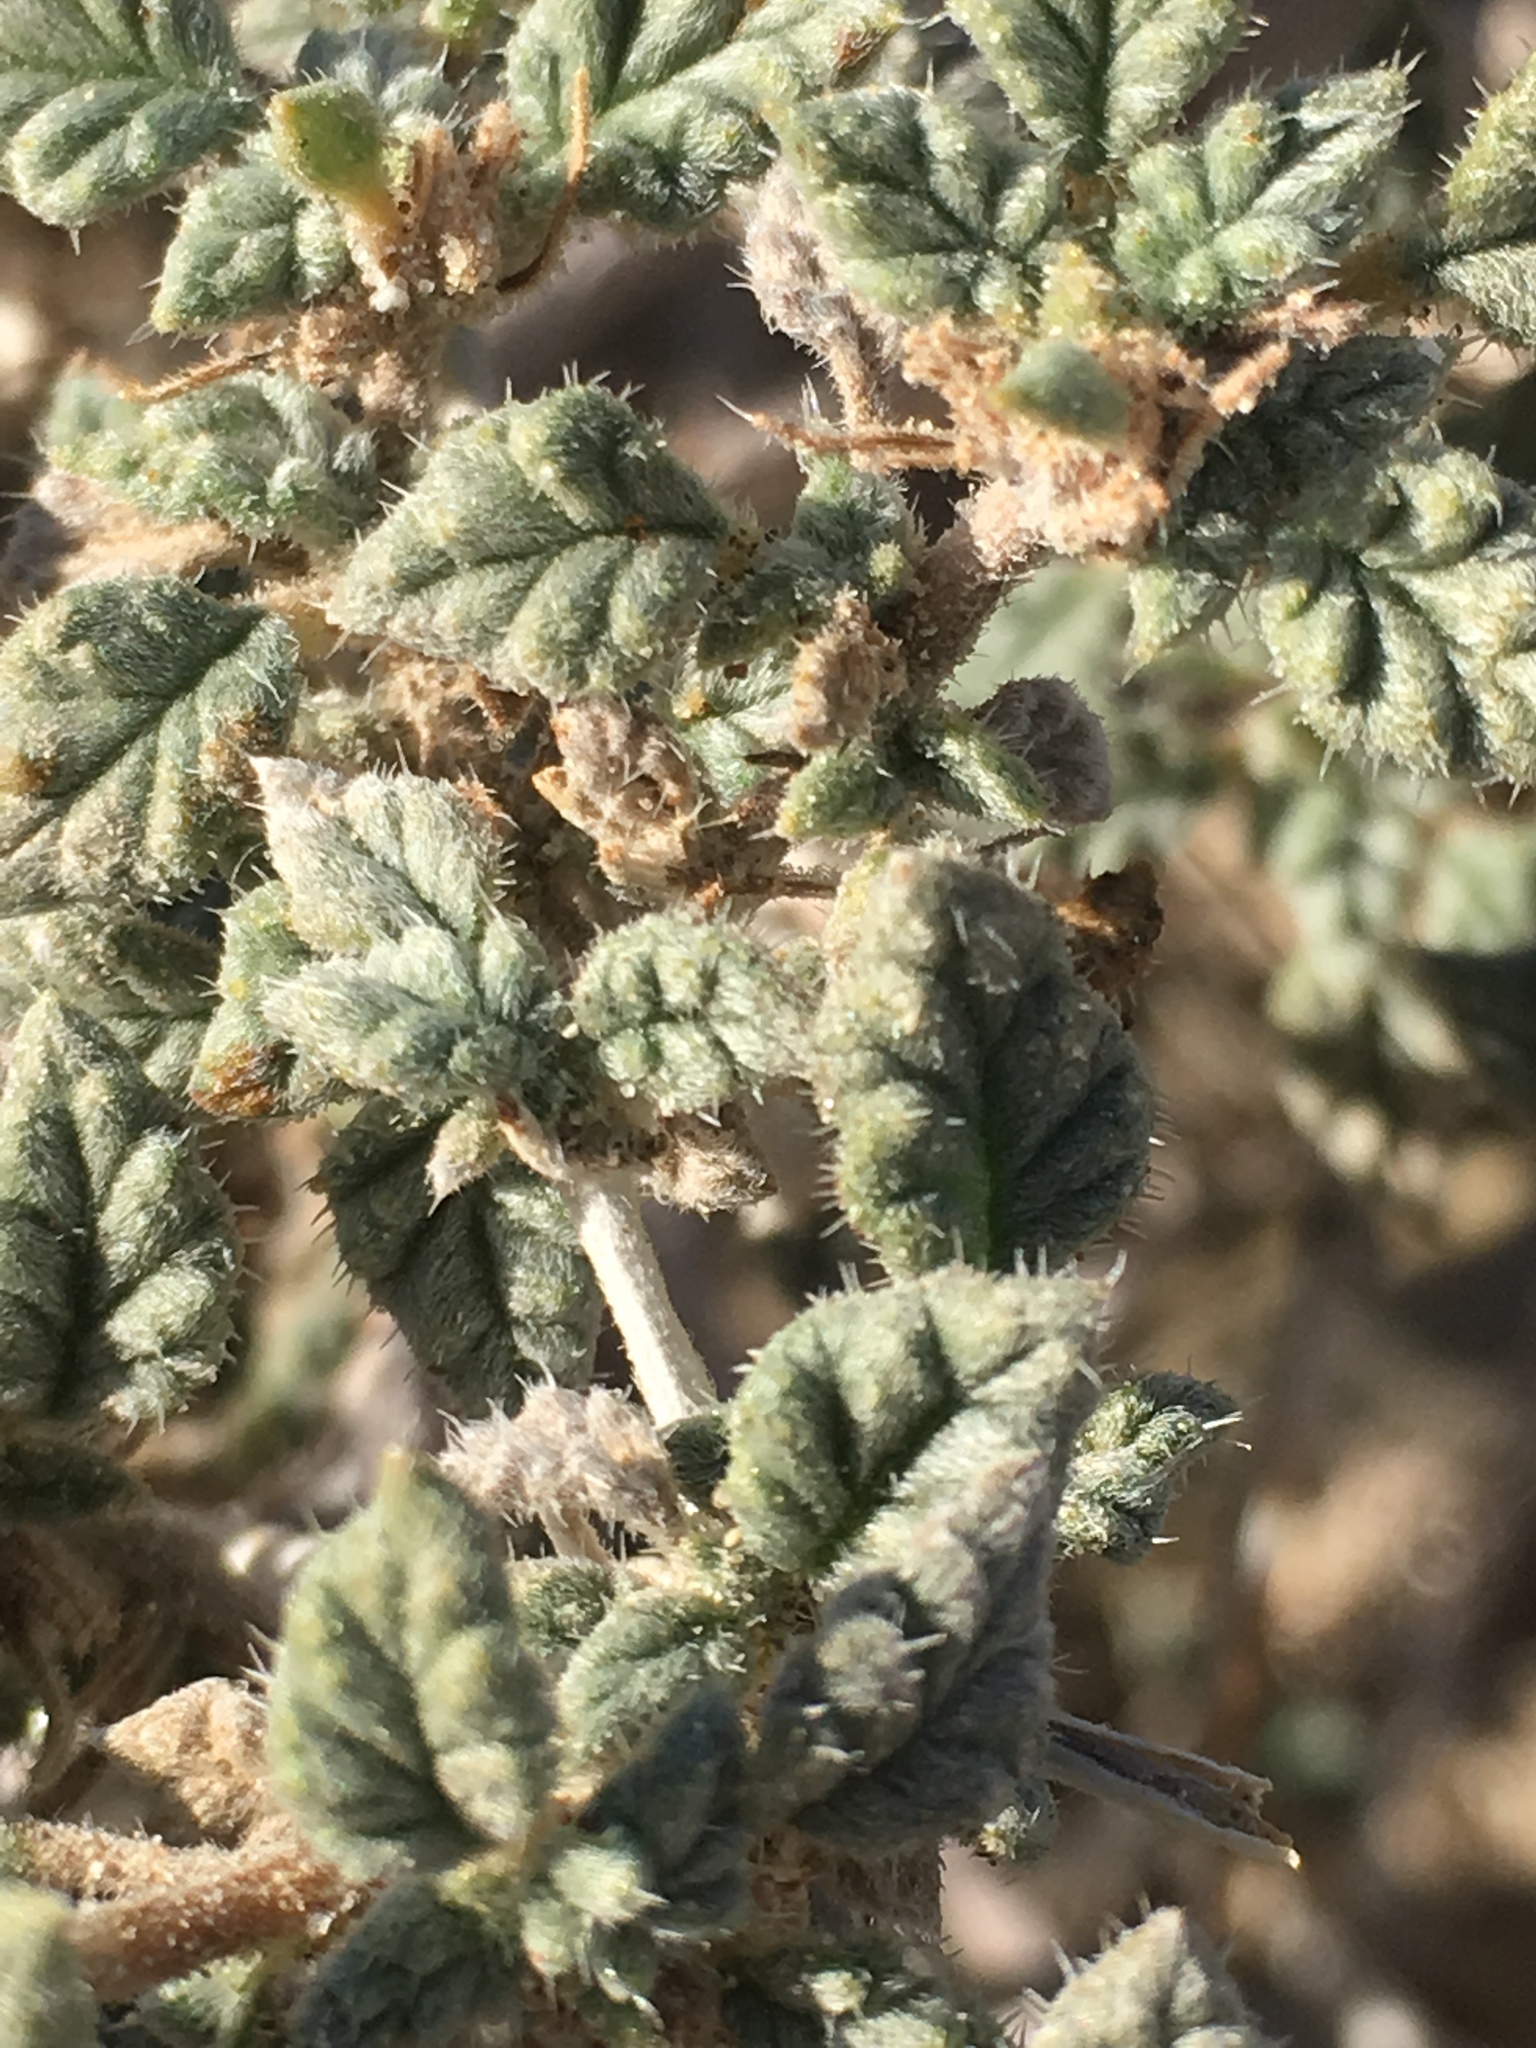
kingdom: Plantae
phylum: Tracheophyta
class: Magnoliopsida
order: Boraginales
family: Ehretiaceae
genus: Tiquilia
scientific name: Tiquilia palmeri
